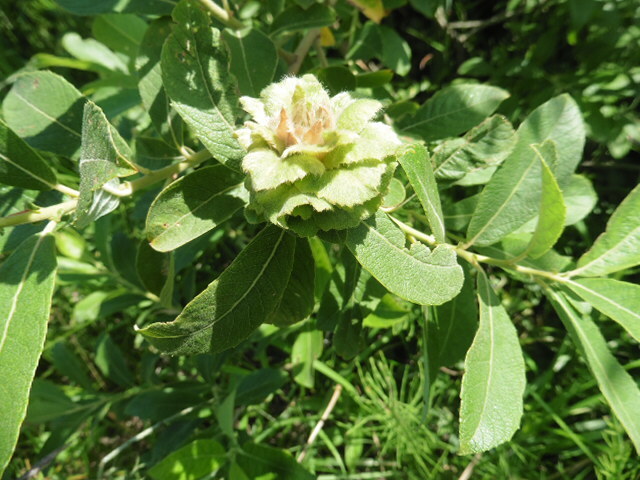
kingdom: Animalia
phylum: Arthropoda
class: Insecta
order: Diptera
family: Cecidomyiidae
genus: Rabdophaga
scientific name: Rabdophaga rosaria
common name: Willow rose gall midge
